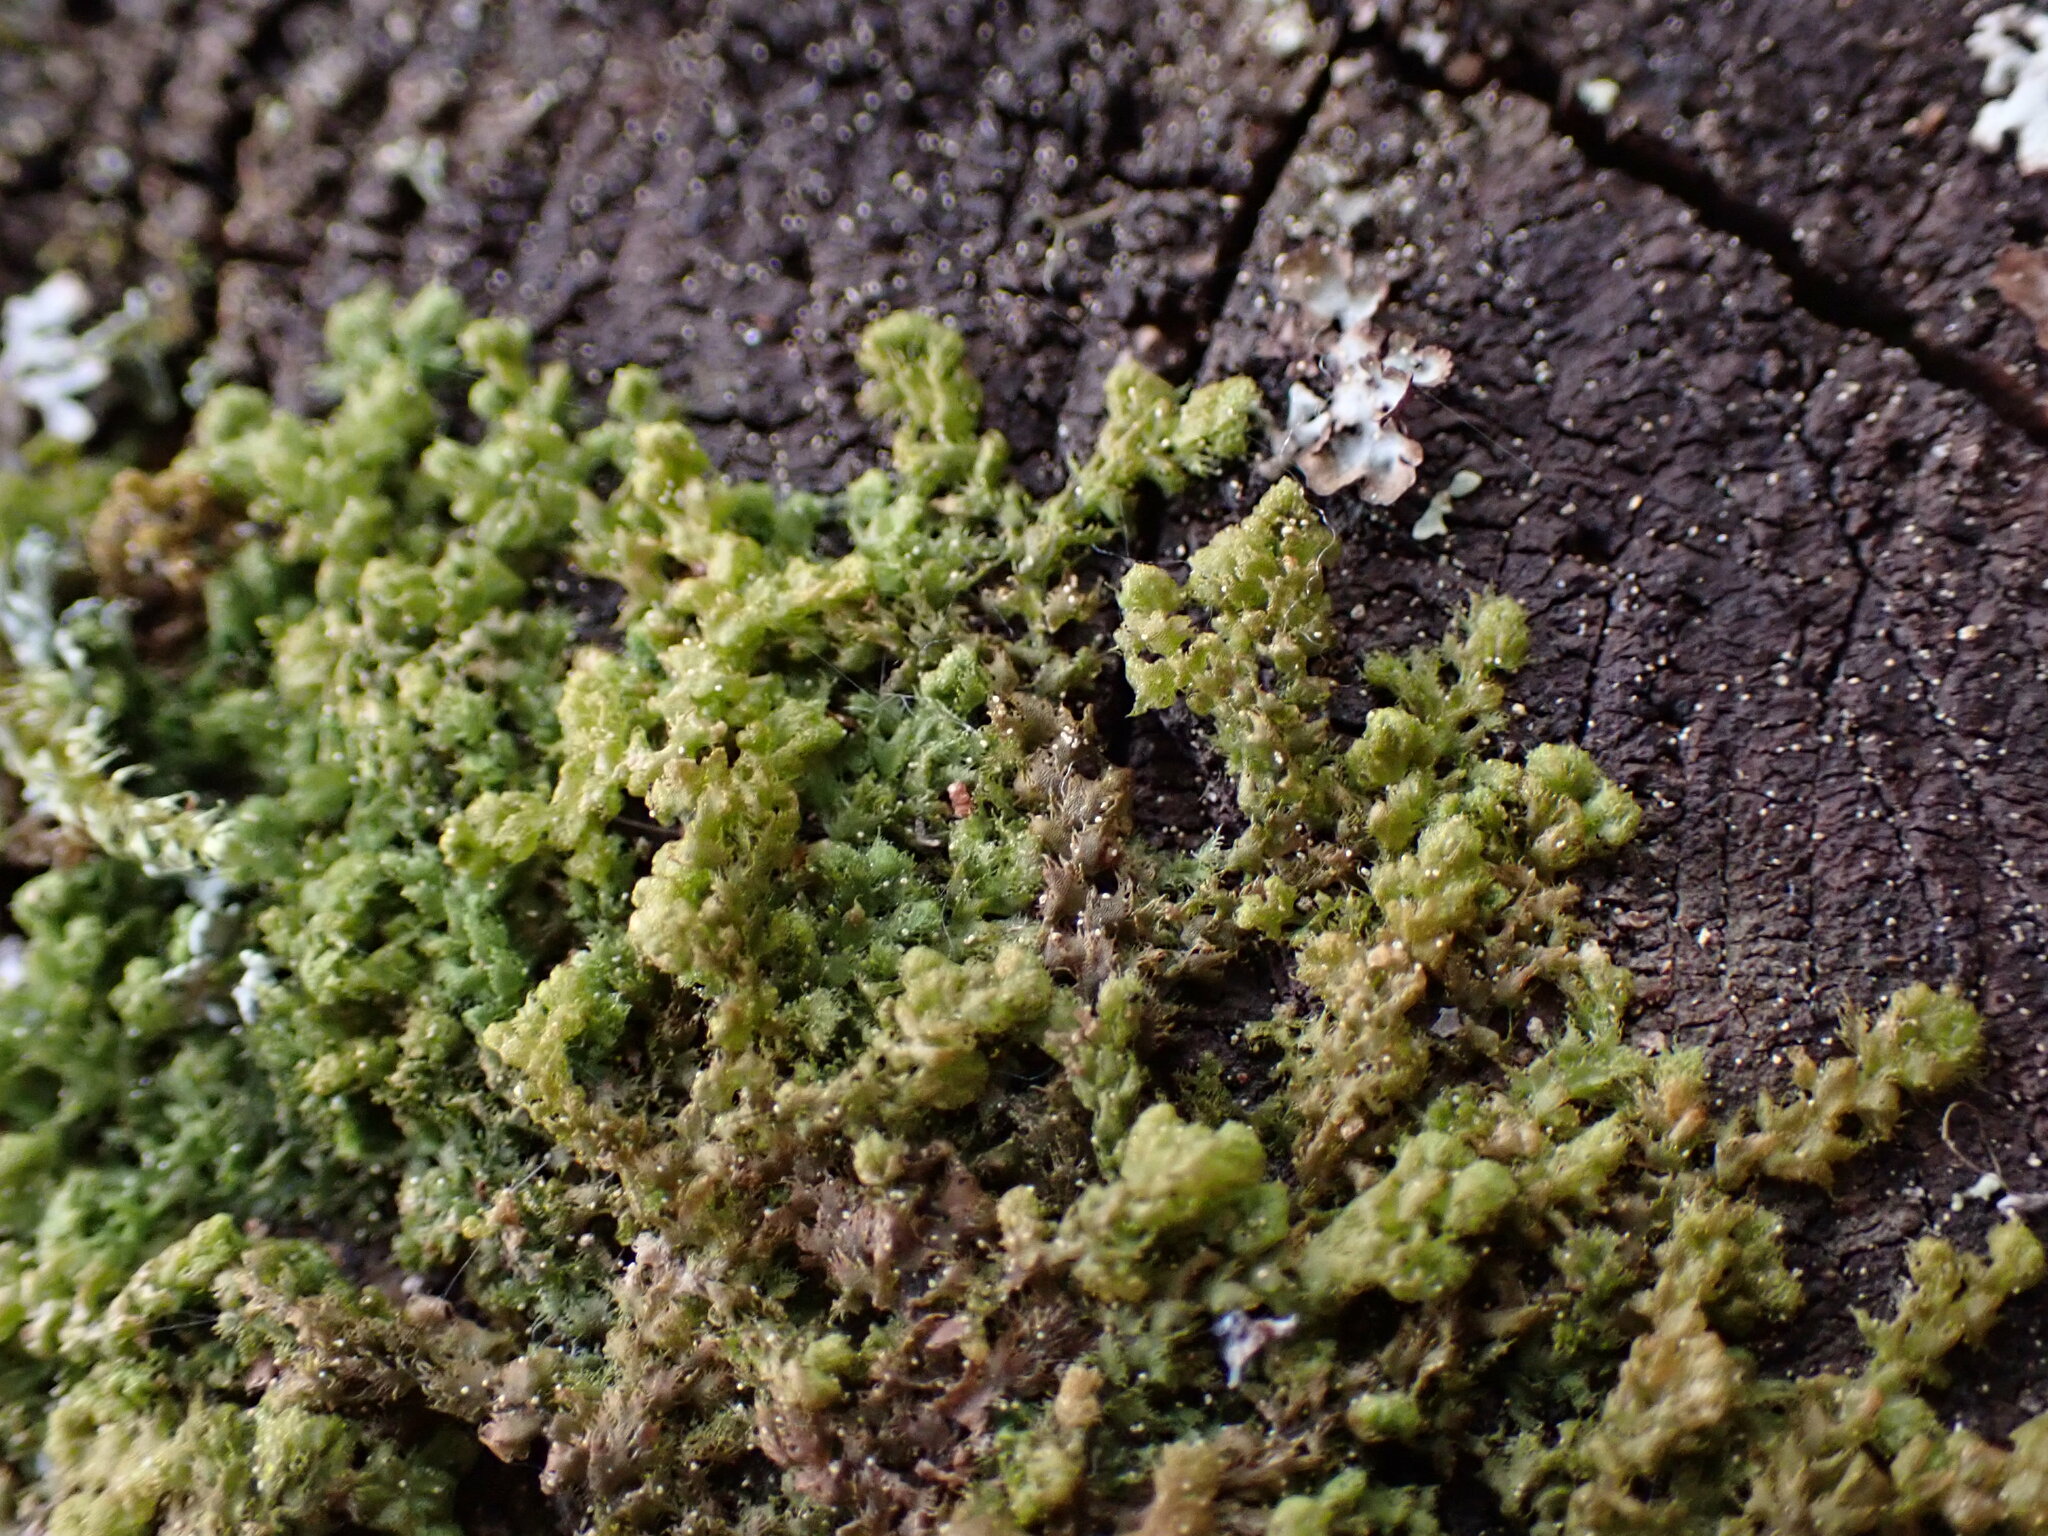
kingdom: Plantae
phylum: Marchantiophyta
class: Jungermanniopsida
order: Ptilidiales
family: Ptilidiaceae
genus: Ptilidium
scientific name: Ptilidium pulcherrimum
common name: Tree fringewort
